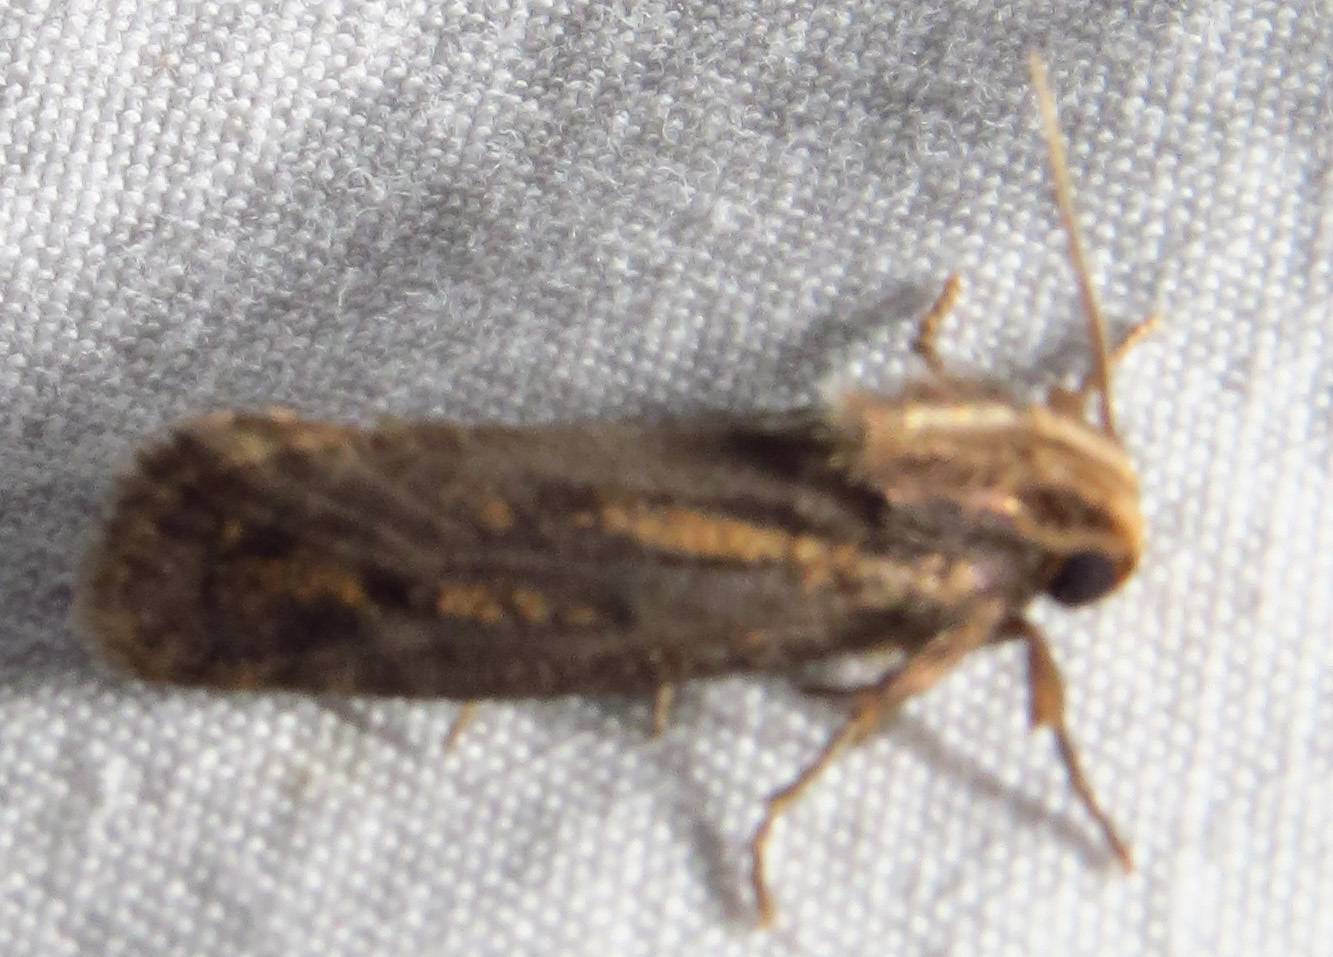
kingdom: Animalia
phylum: Arthropoda
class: Insecta
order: Lepidoptera
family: Tineidae
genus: Acrolophus
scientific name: Acrolophus popeanella
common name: Clemens' grass tubeworm moth
